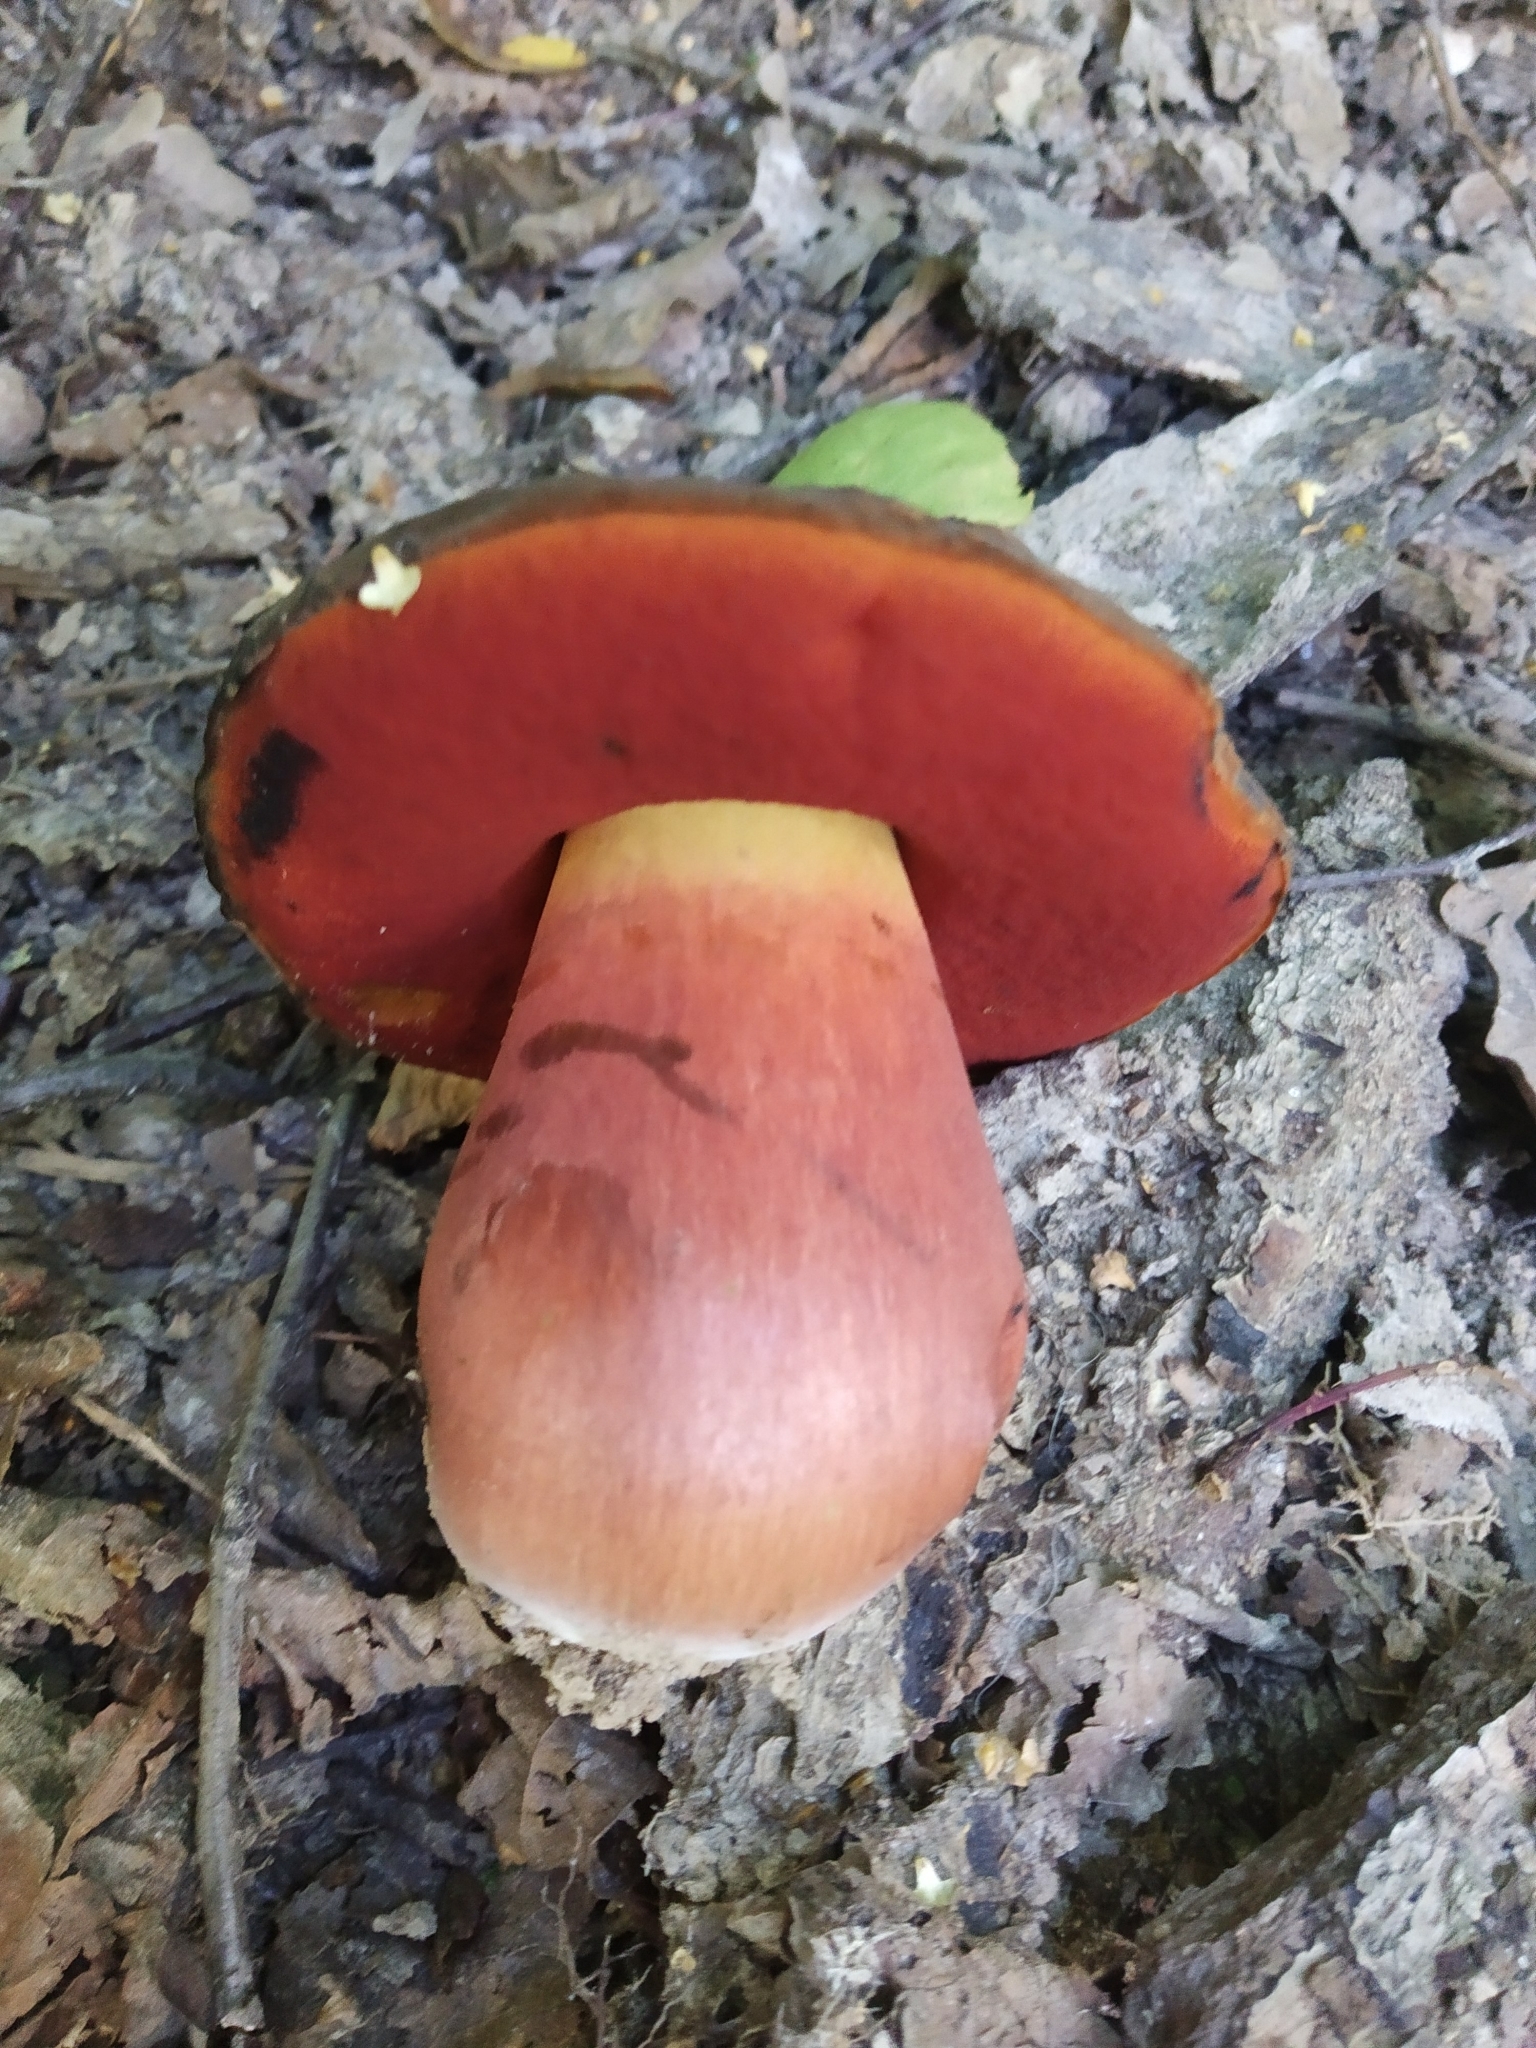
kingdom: Fungi
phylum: Basidiomycota
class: Agaricomycetes
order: Boletales
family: Boletaceae
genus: Neoboletus
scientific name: Neoboletus luridiformis
